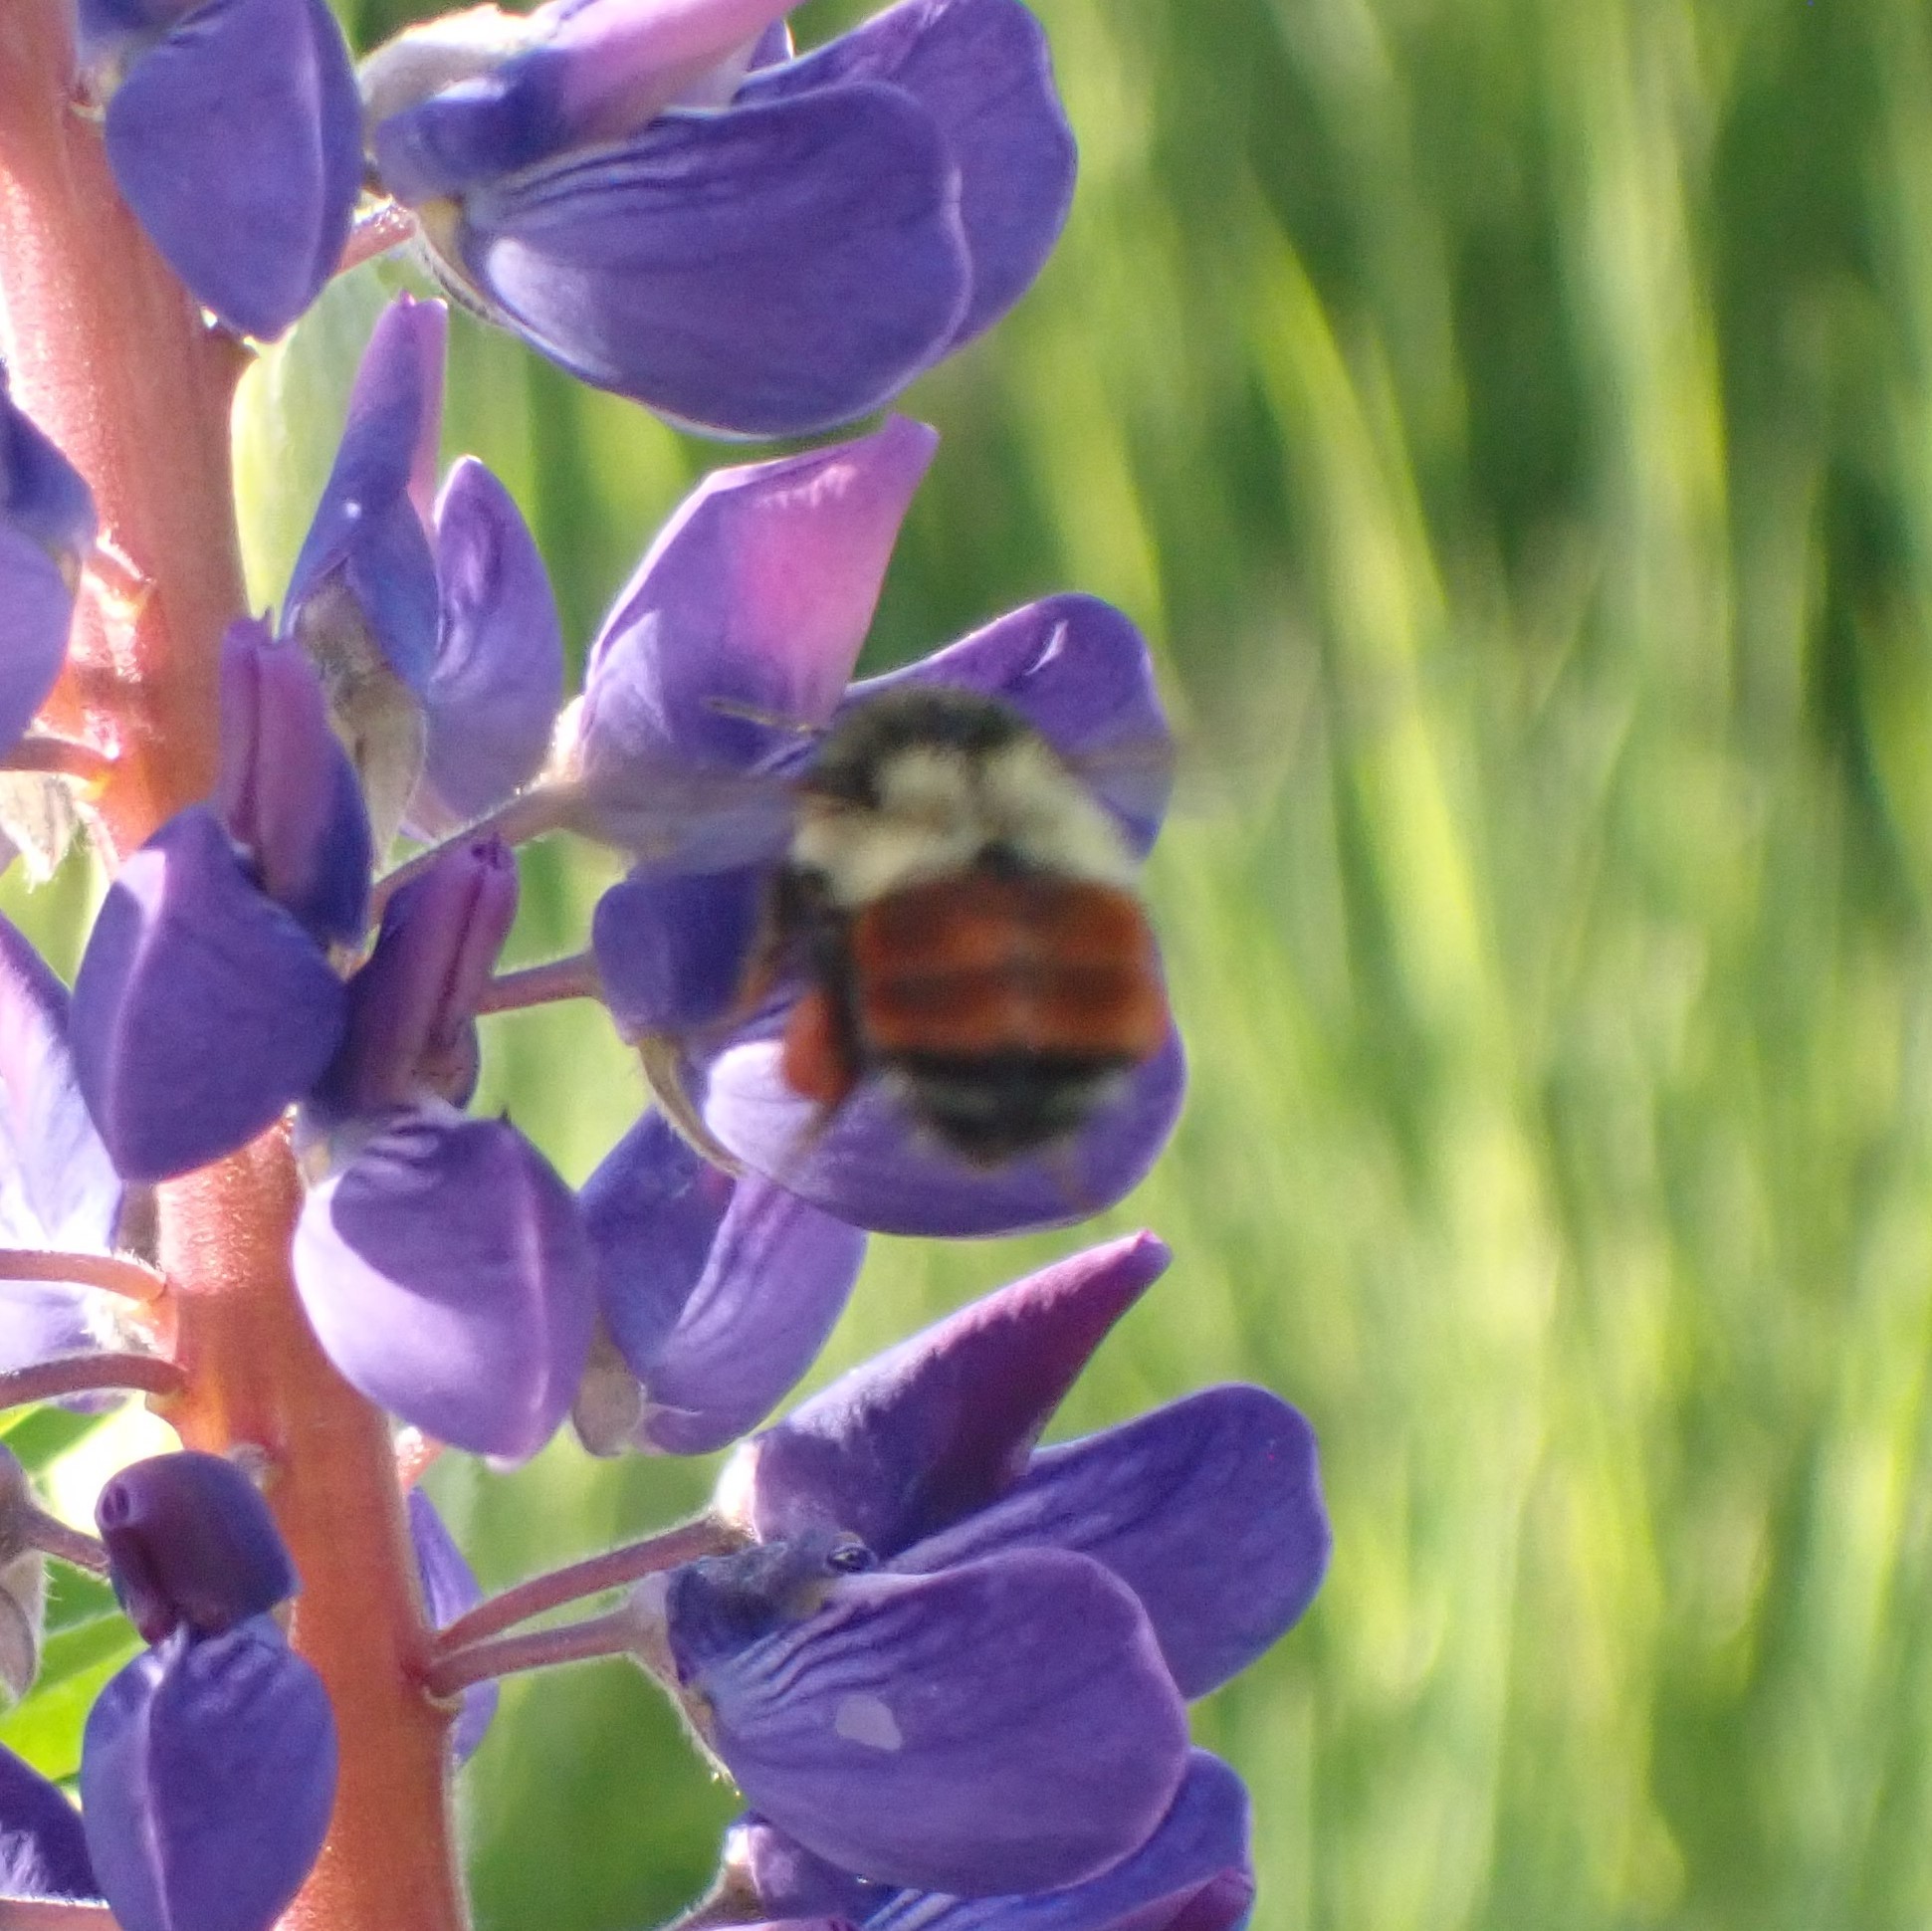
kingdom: Animalia
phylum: Arthropoda
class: Insecta
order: Hymenoptera
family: Apidae
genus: Bombus
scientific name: Bombus melanopygus
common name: Black tail bumble bee
